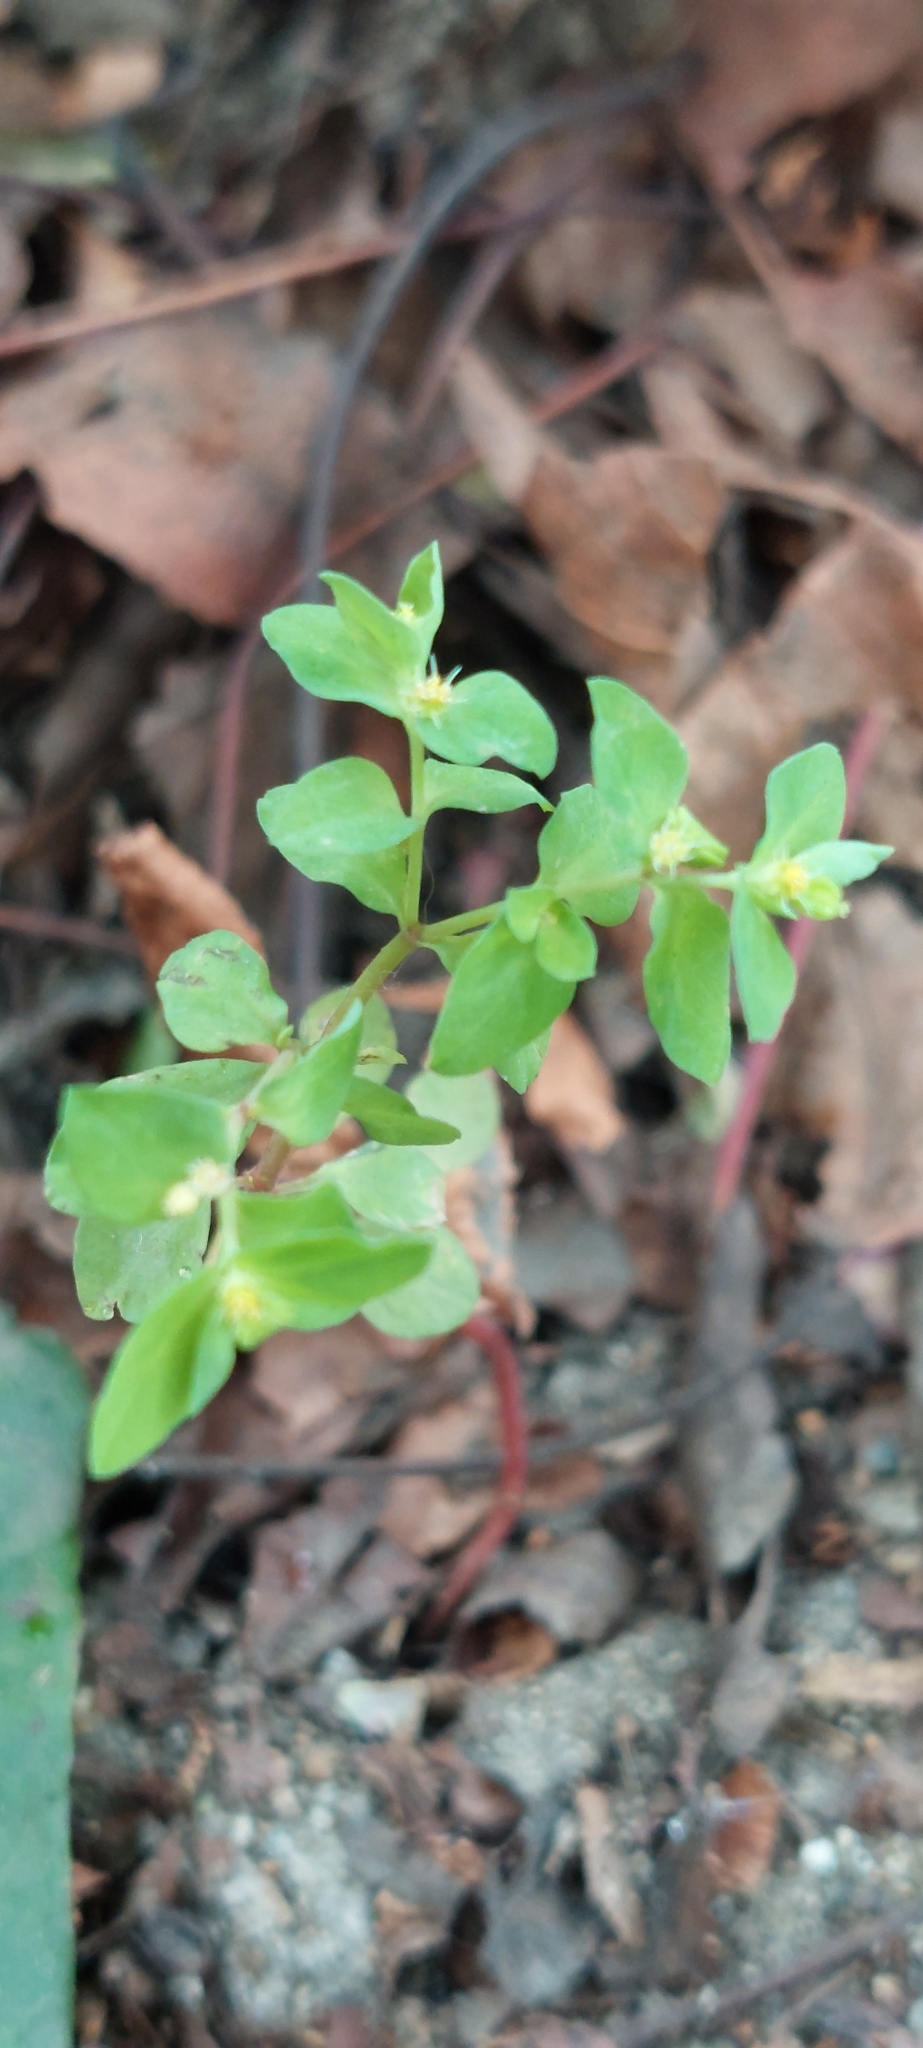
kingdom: Plantae
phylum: Tracheophyta
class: Magnoliopsida
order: Malpighiales
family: Euphorbiaceae
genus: Euphorbia
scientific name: Euphorbia peplus
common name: Petty spurge
